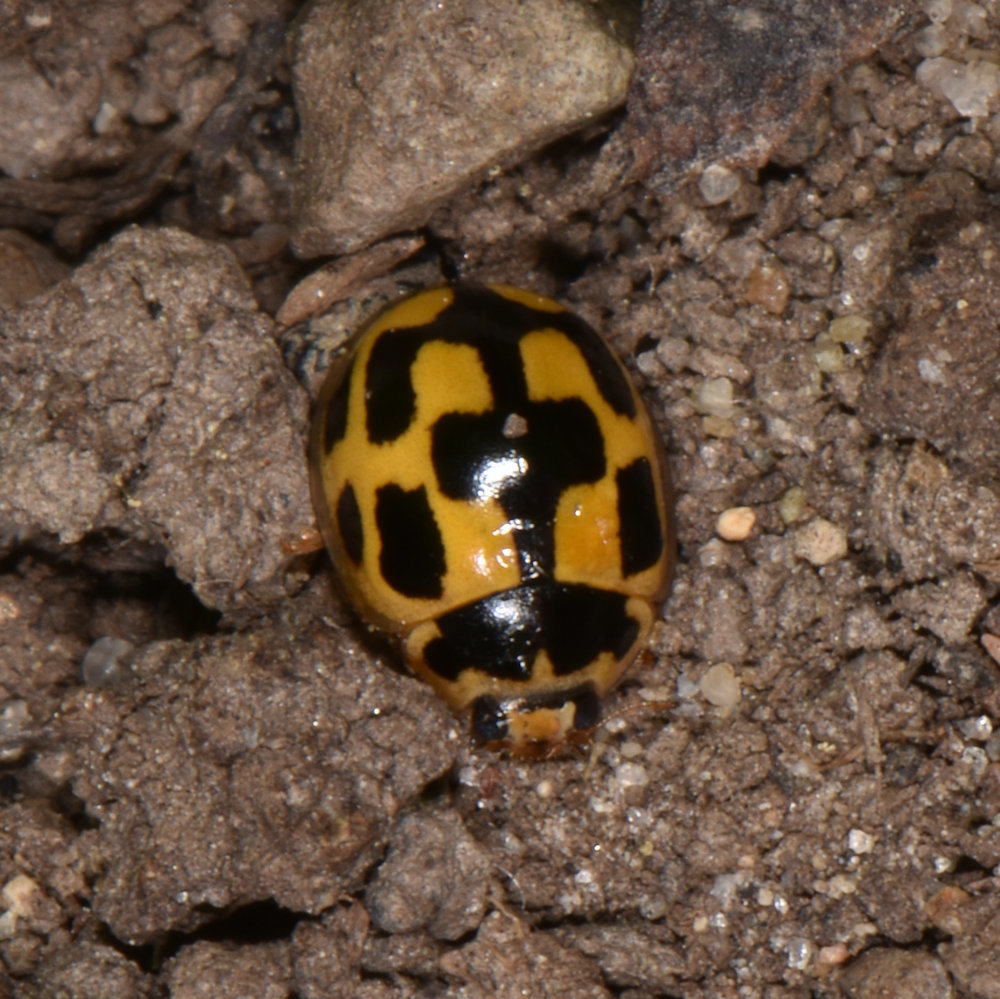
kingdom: Animalia
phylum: Arthropoda
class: Insecta
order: Coleoptera
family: Coccinellidae
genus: Propylaea
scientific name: Propylaea quatuordecimpunctata
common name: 14-spotted ladybird beetle
